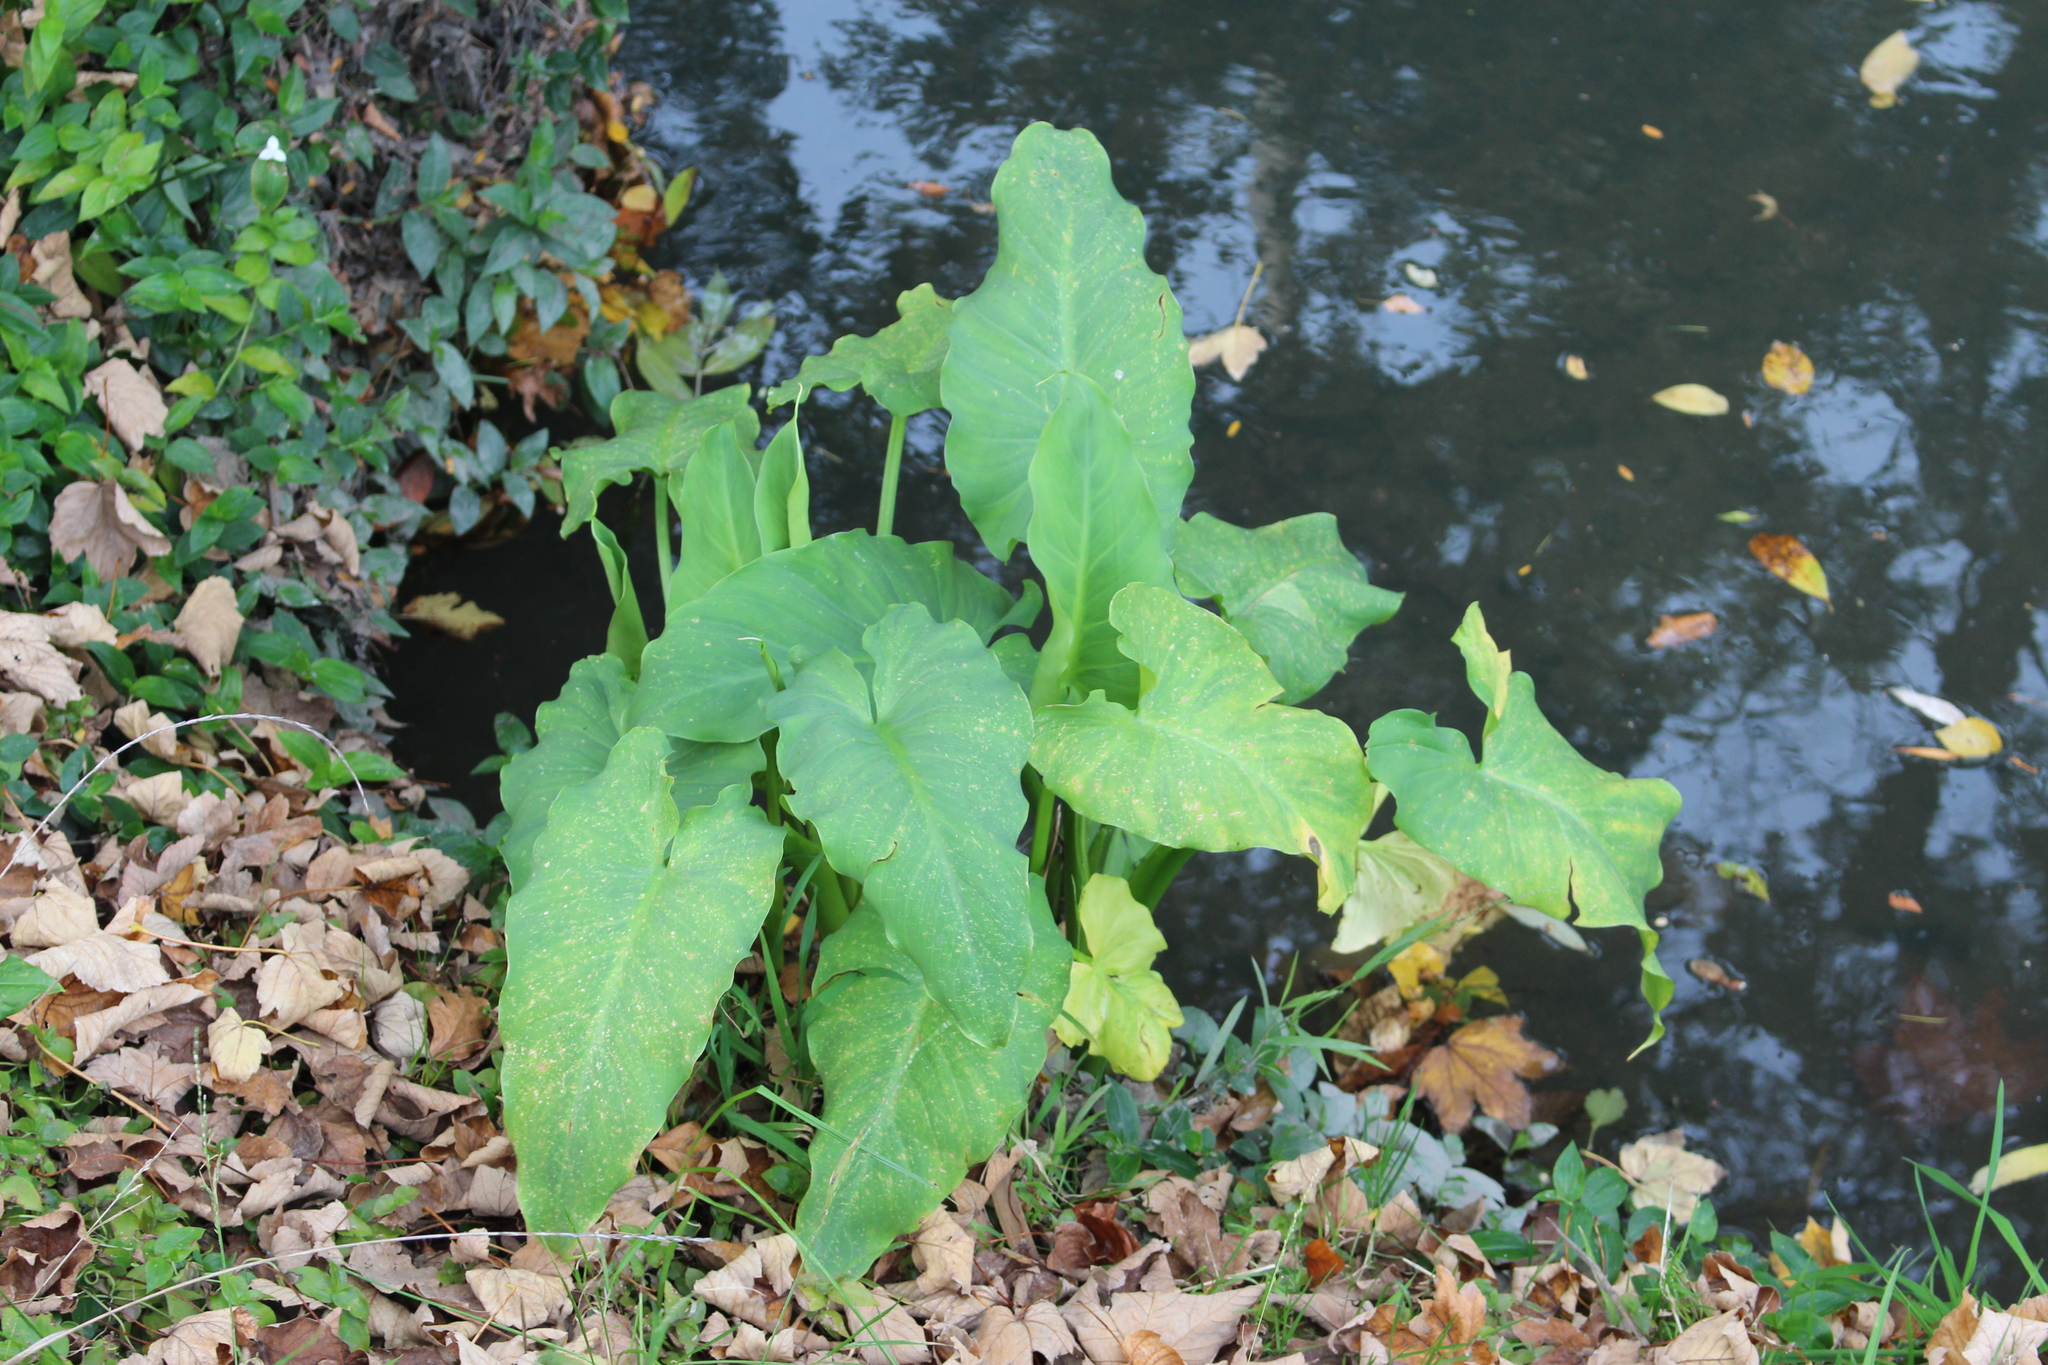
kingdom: Plantae
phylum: Tracheophyta
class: Liliopsida
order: Alismatales
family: Araceae
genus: Zantedeschia
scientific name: Zantedeschia aethiopica
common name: Altar-lily
